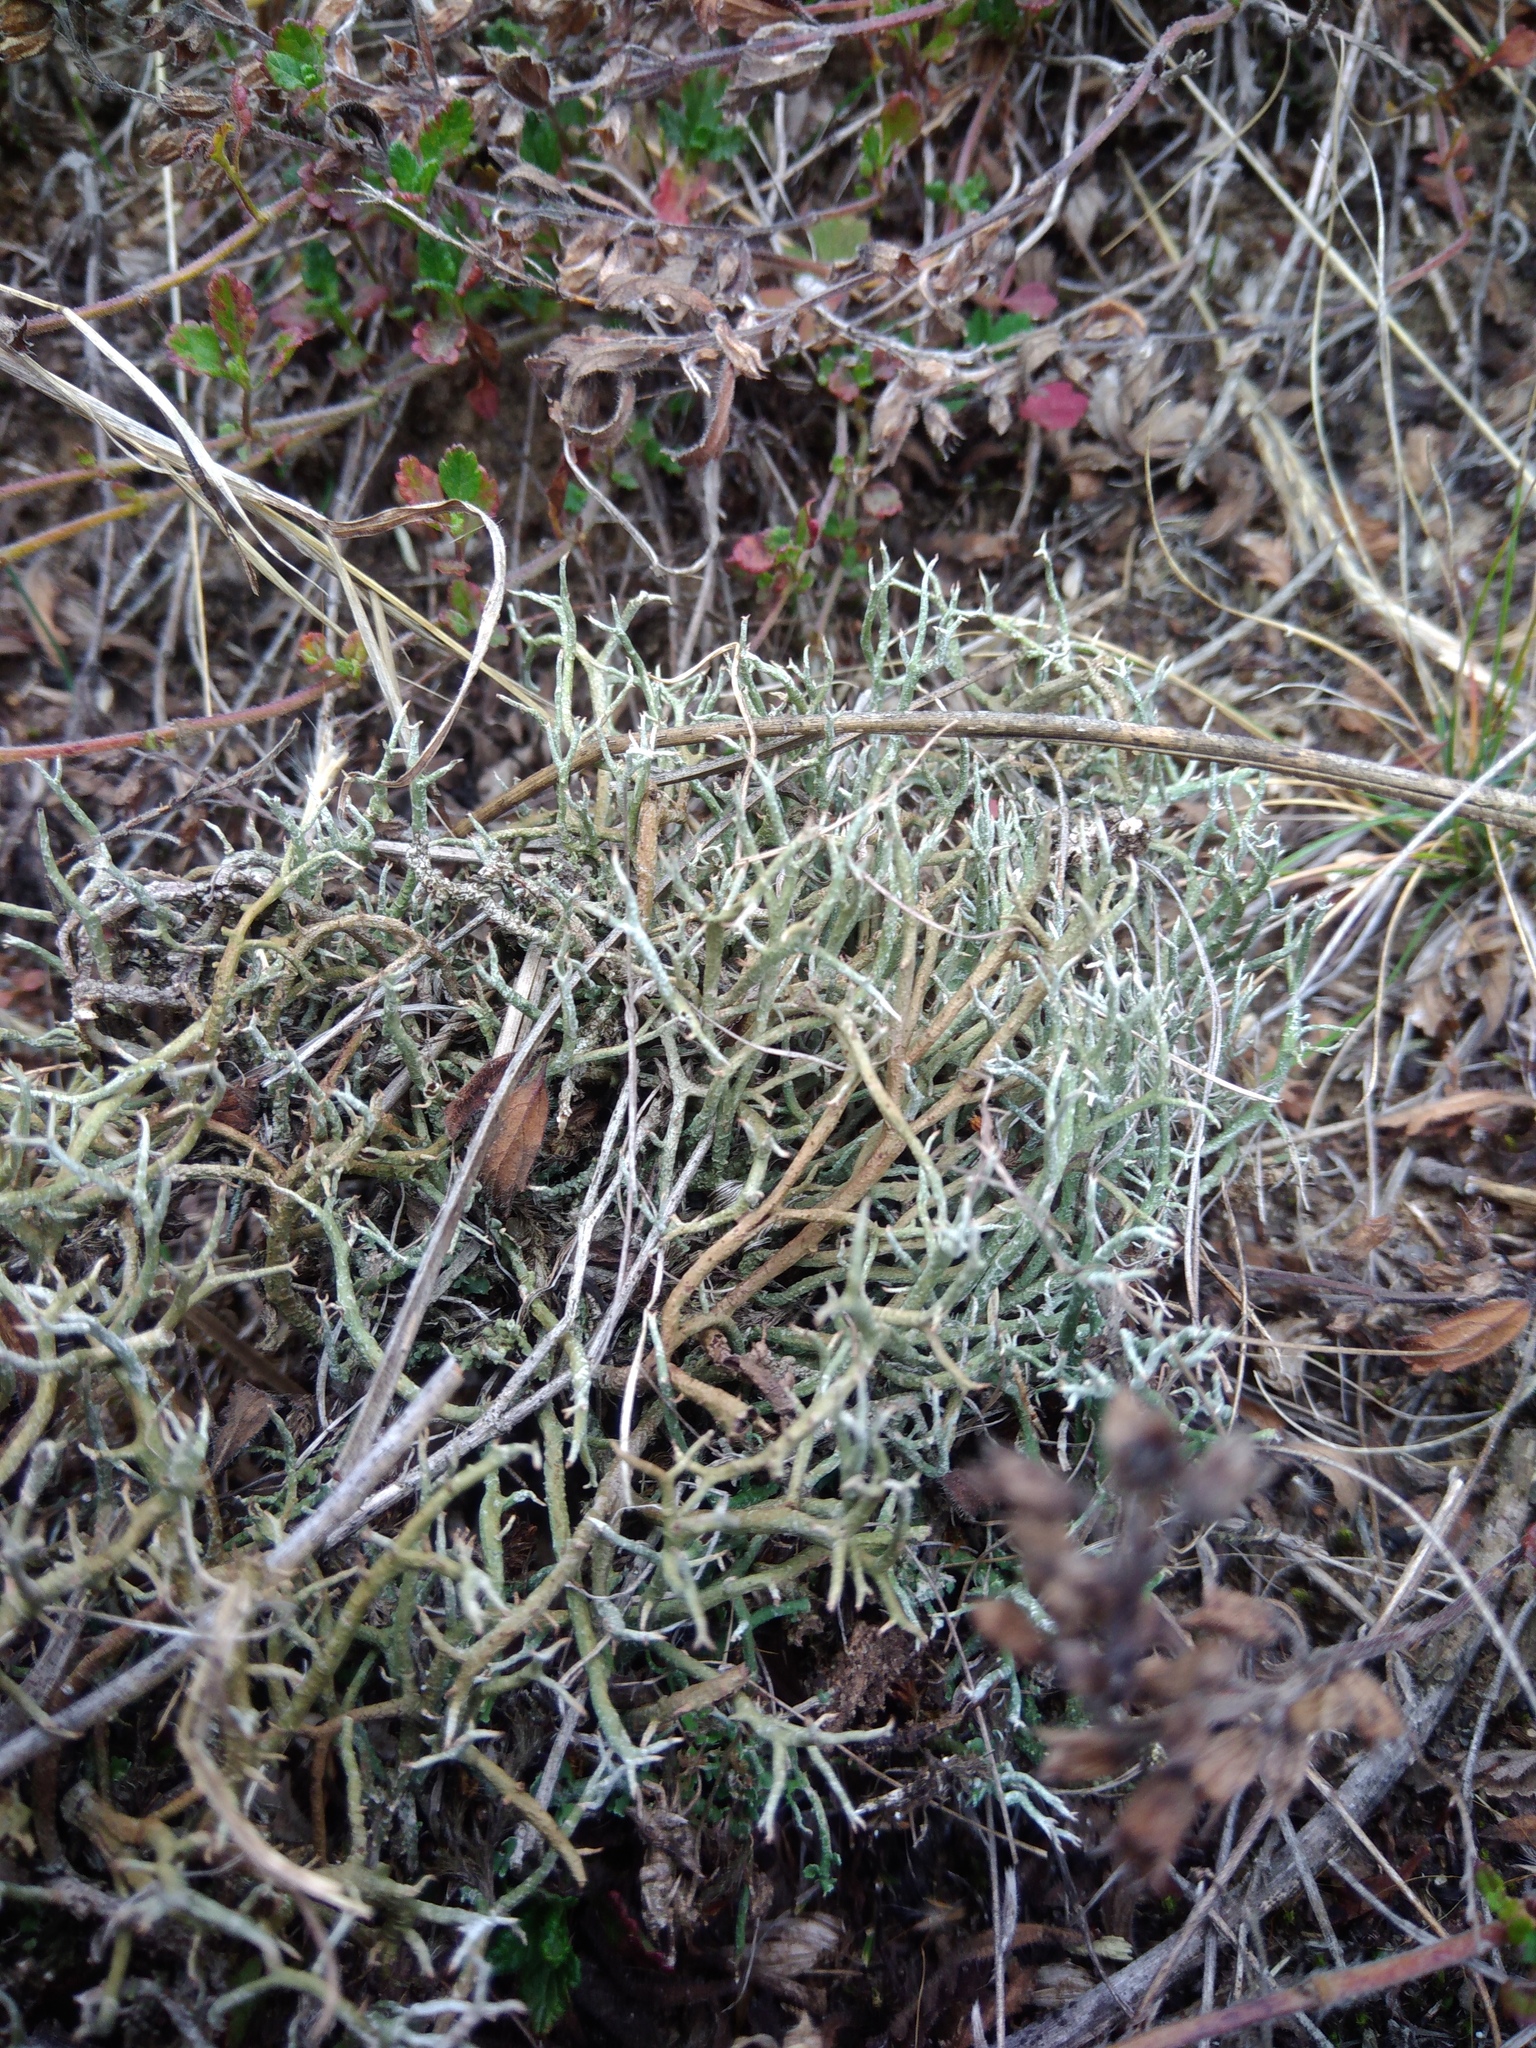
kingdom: Fungi
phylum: Ascomycota
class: Lecanoromycetes
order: Lecanorales
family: Cladoniaceae
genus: Cladonia
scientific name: Cladonia furcata
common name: Many-forked cladonia
